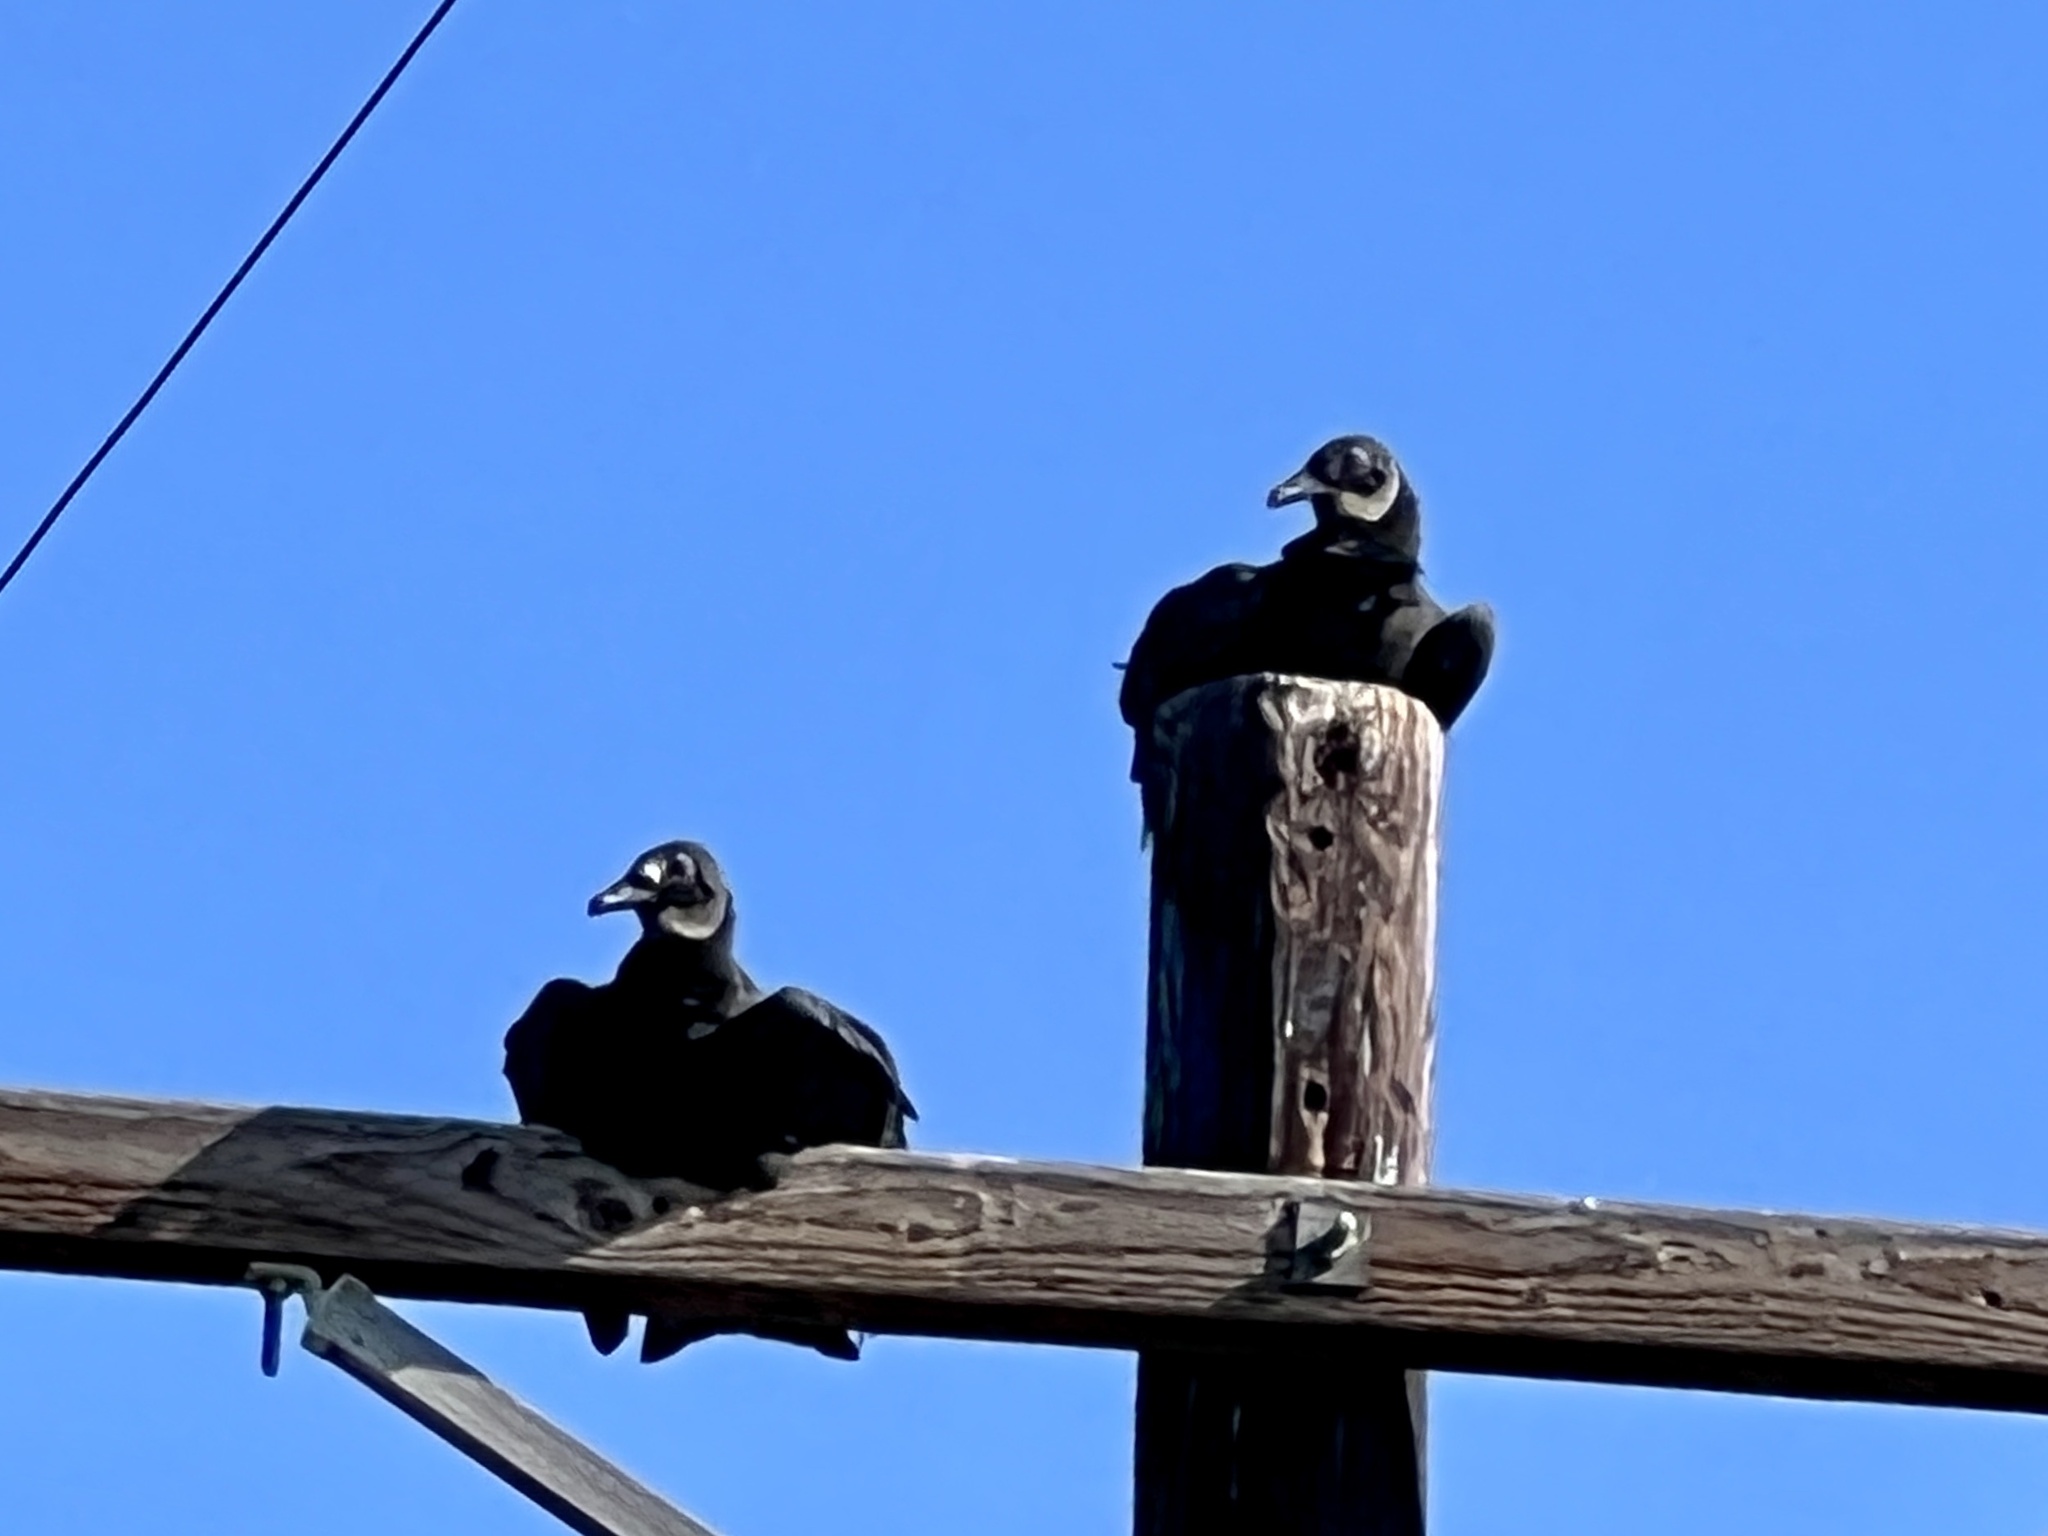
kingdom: Animalia
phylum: Chordata
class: Aves
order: Accipitriformes
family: Cathartidae
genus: Coragyps
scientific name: Coragyps atratus
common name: Black vulture
